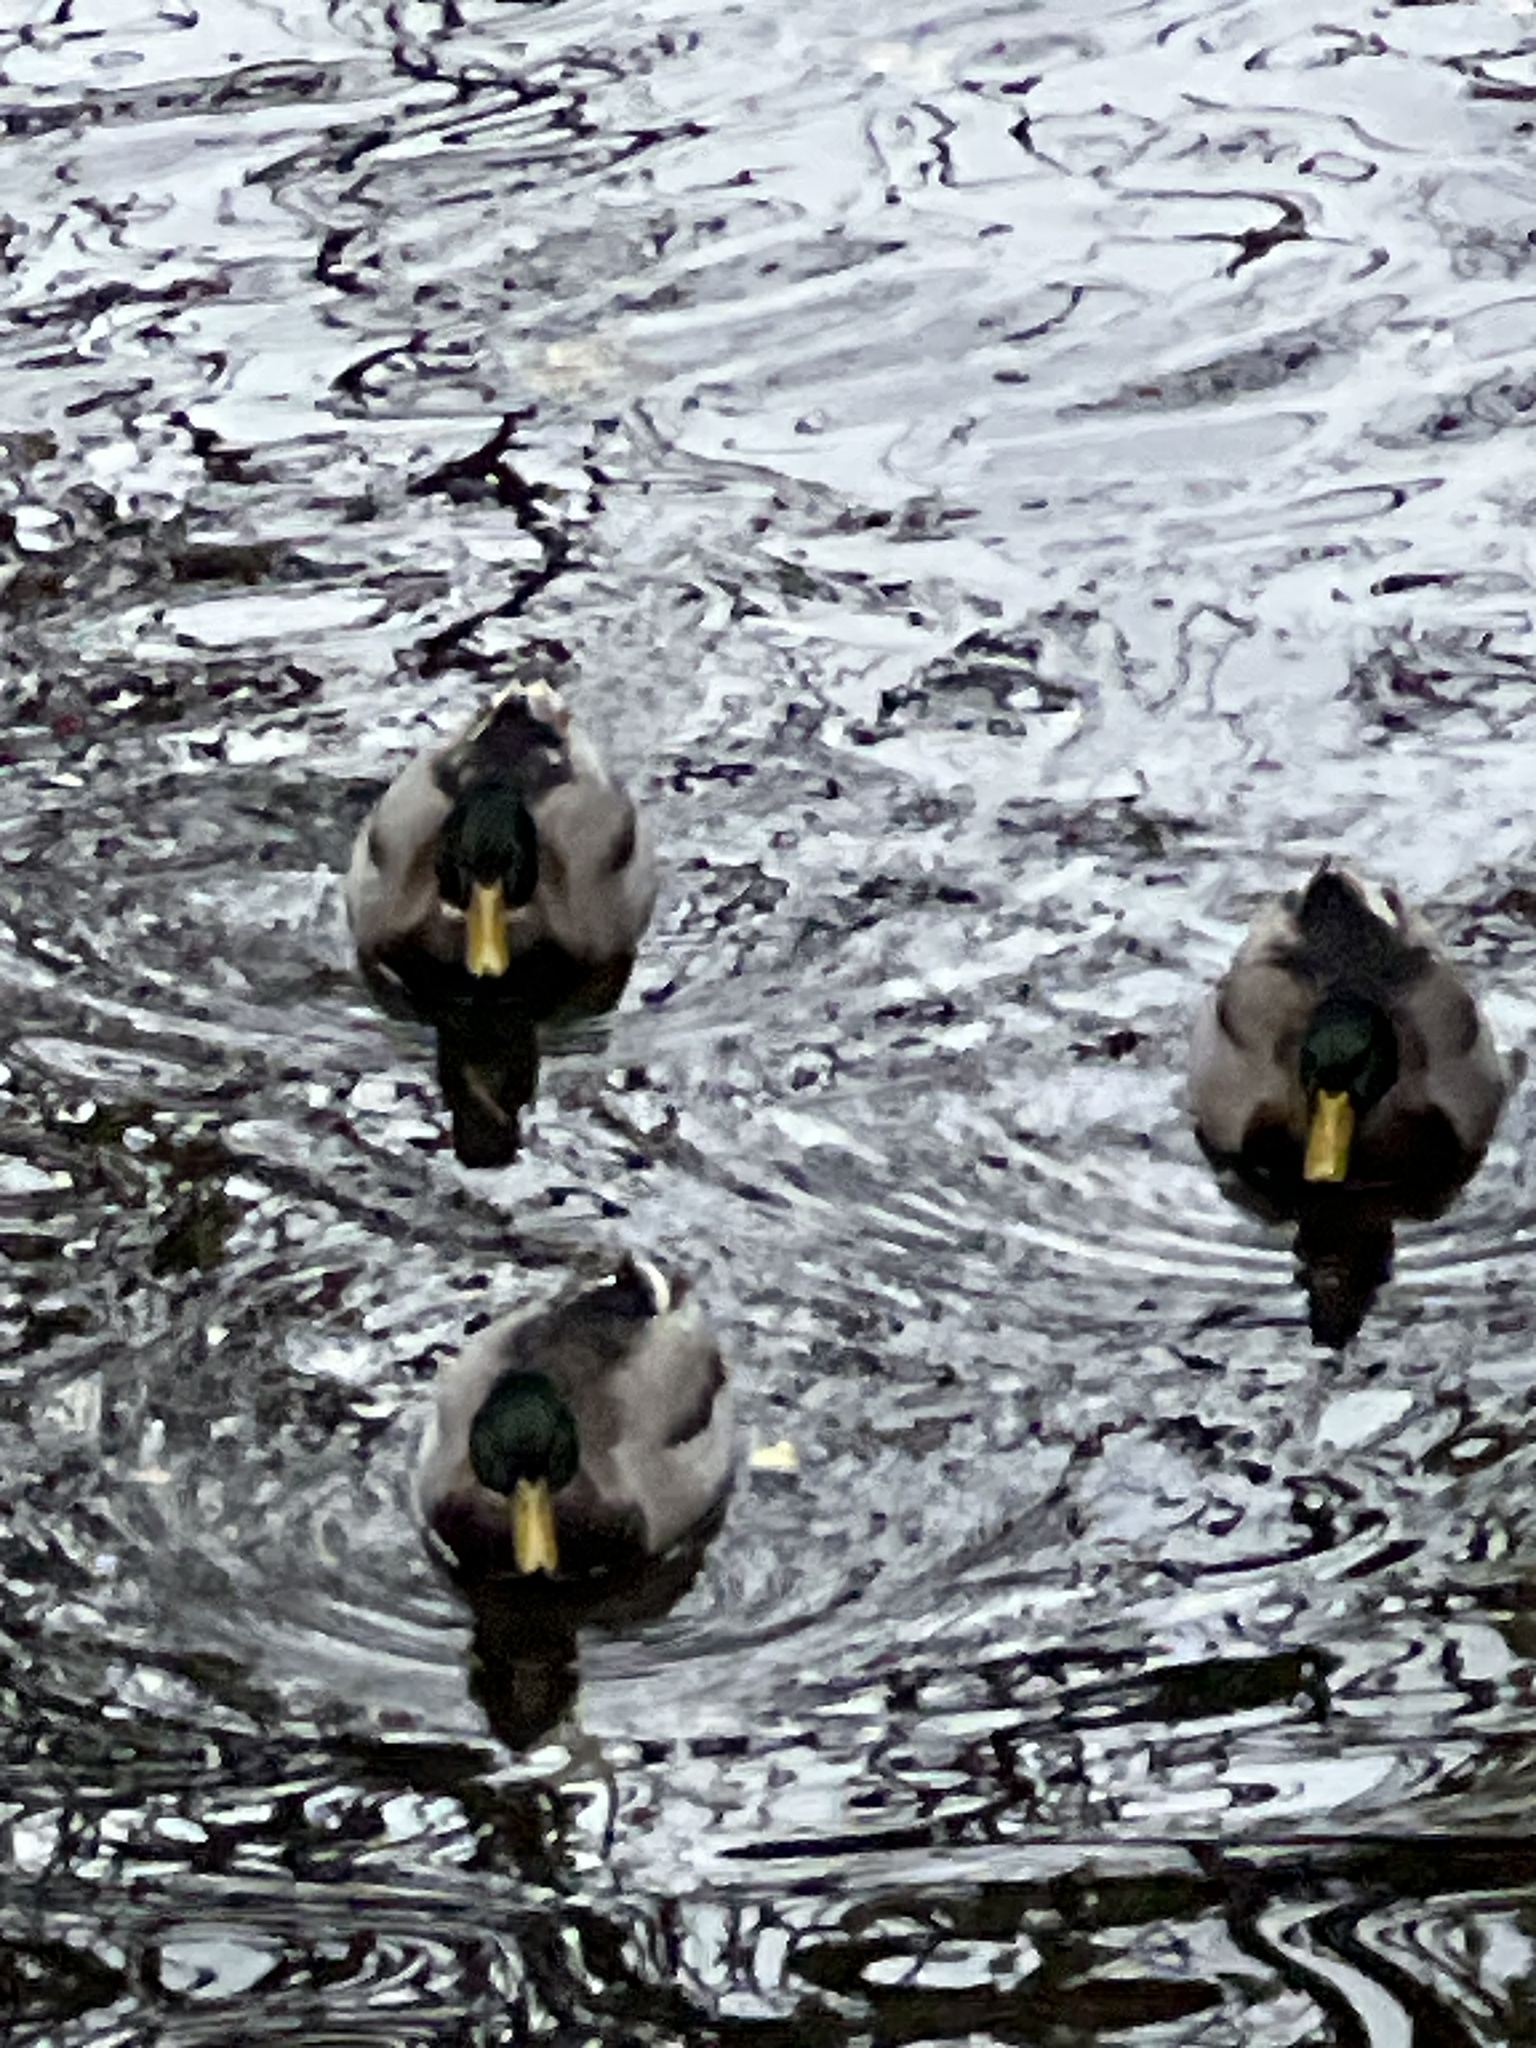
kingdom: Animalia
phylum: Chordata
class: Aves
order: Anseriformes
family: Anatidae
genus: Anas
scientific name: Anas platyrhynchos
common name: Mallard
